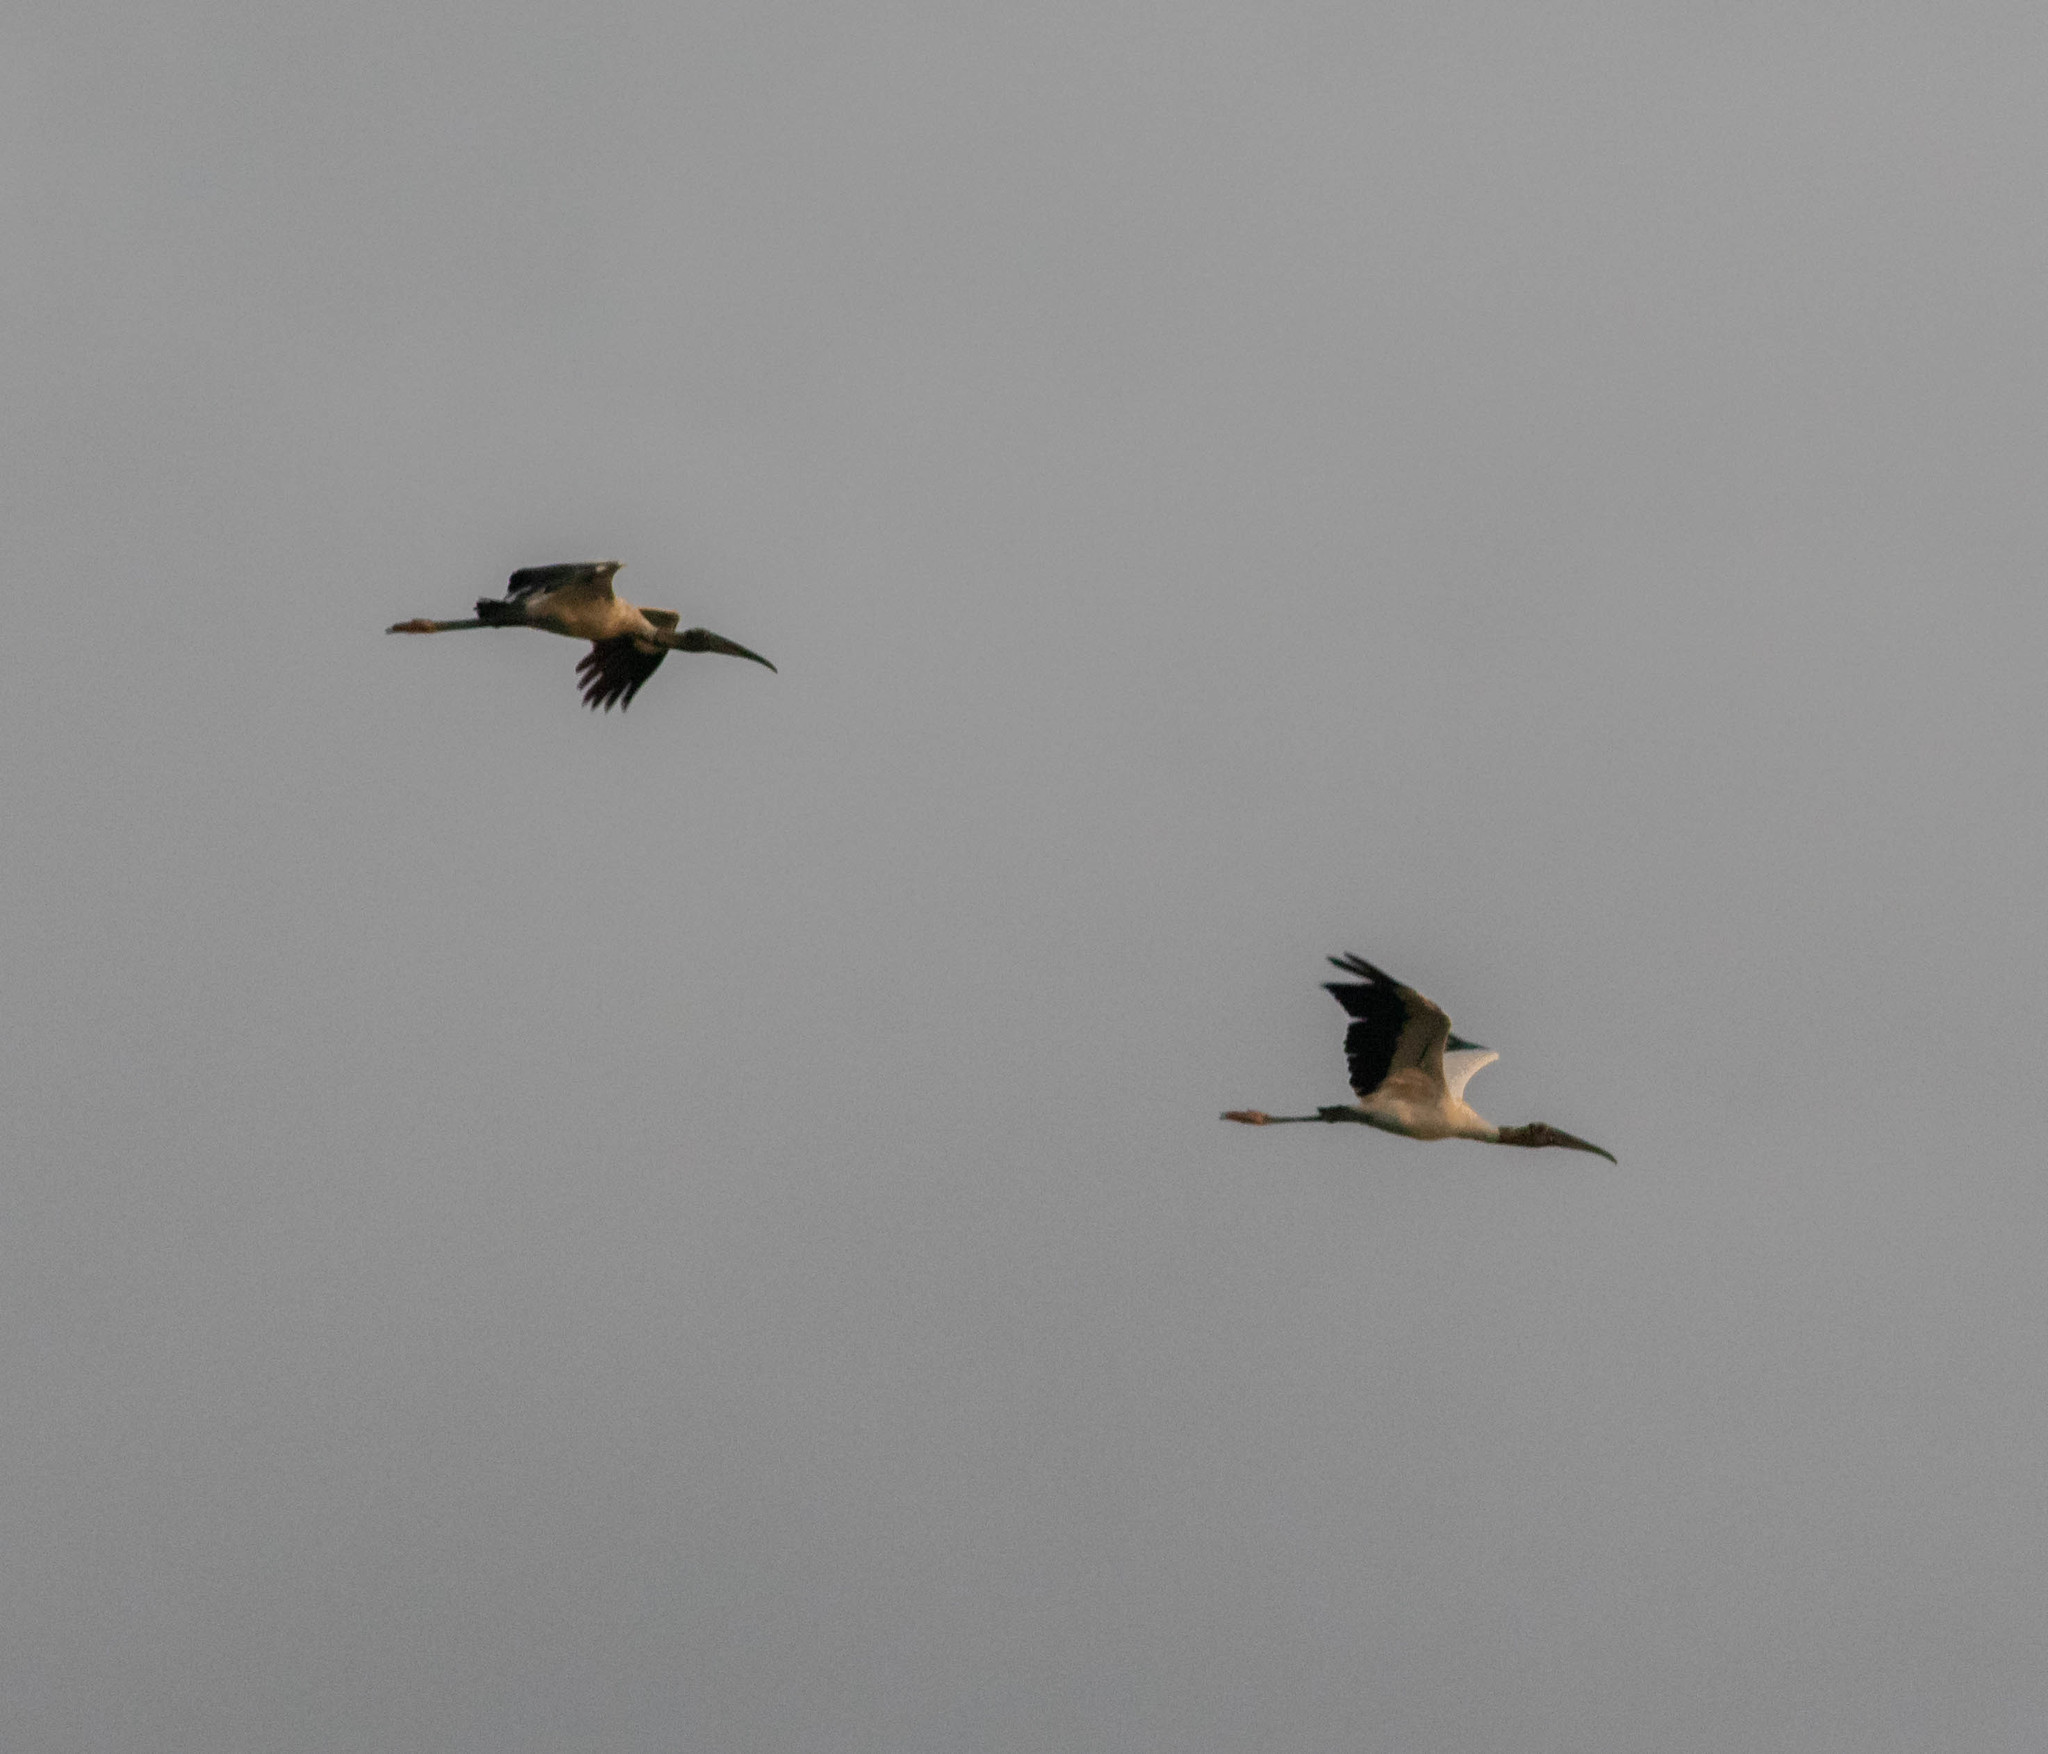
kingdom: Animalia
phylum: Chordata
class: Aves
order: Ciconiiformes
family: Ciconiidae
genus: Mycteria
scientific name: Mycteria americana
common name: Wood stork
